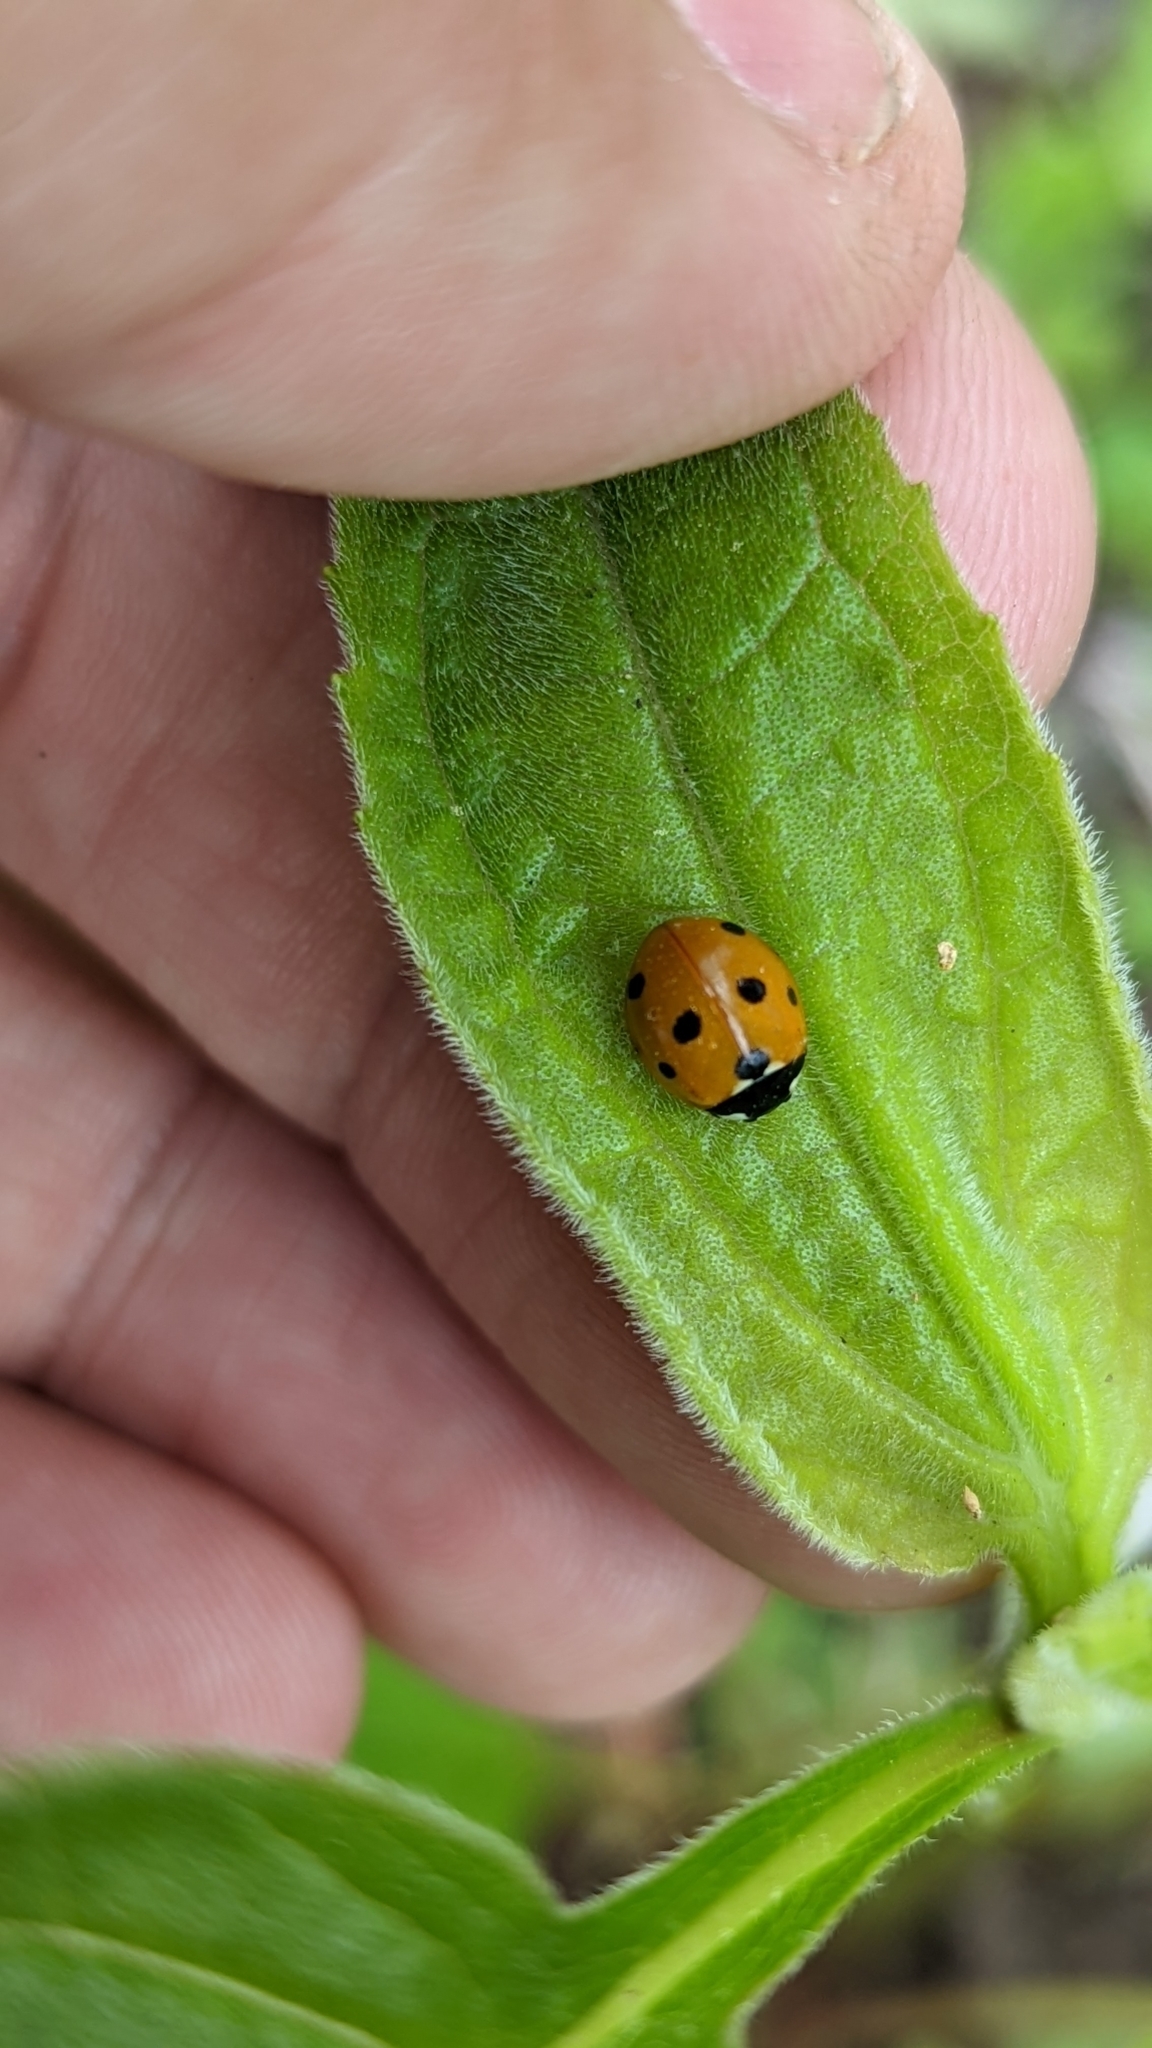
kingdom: Animalia
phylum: Arthropoda
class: Insecta
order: Coleoptera
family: Coccinellidae
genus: Coccinella
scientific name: Coccinella septempunctata
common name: Sevenspotted lady beetle
